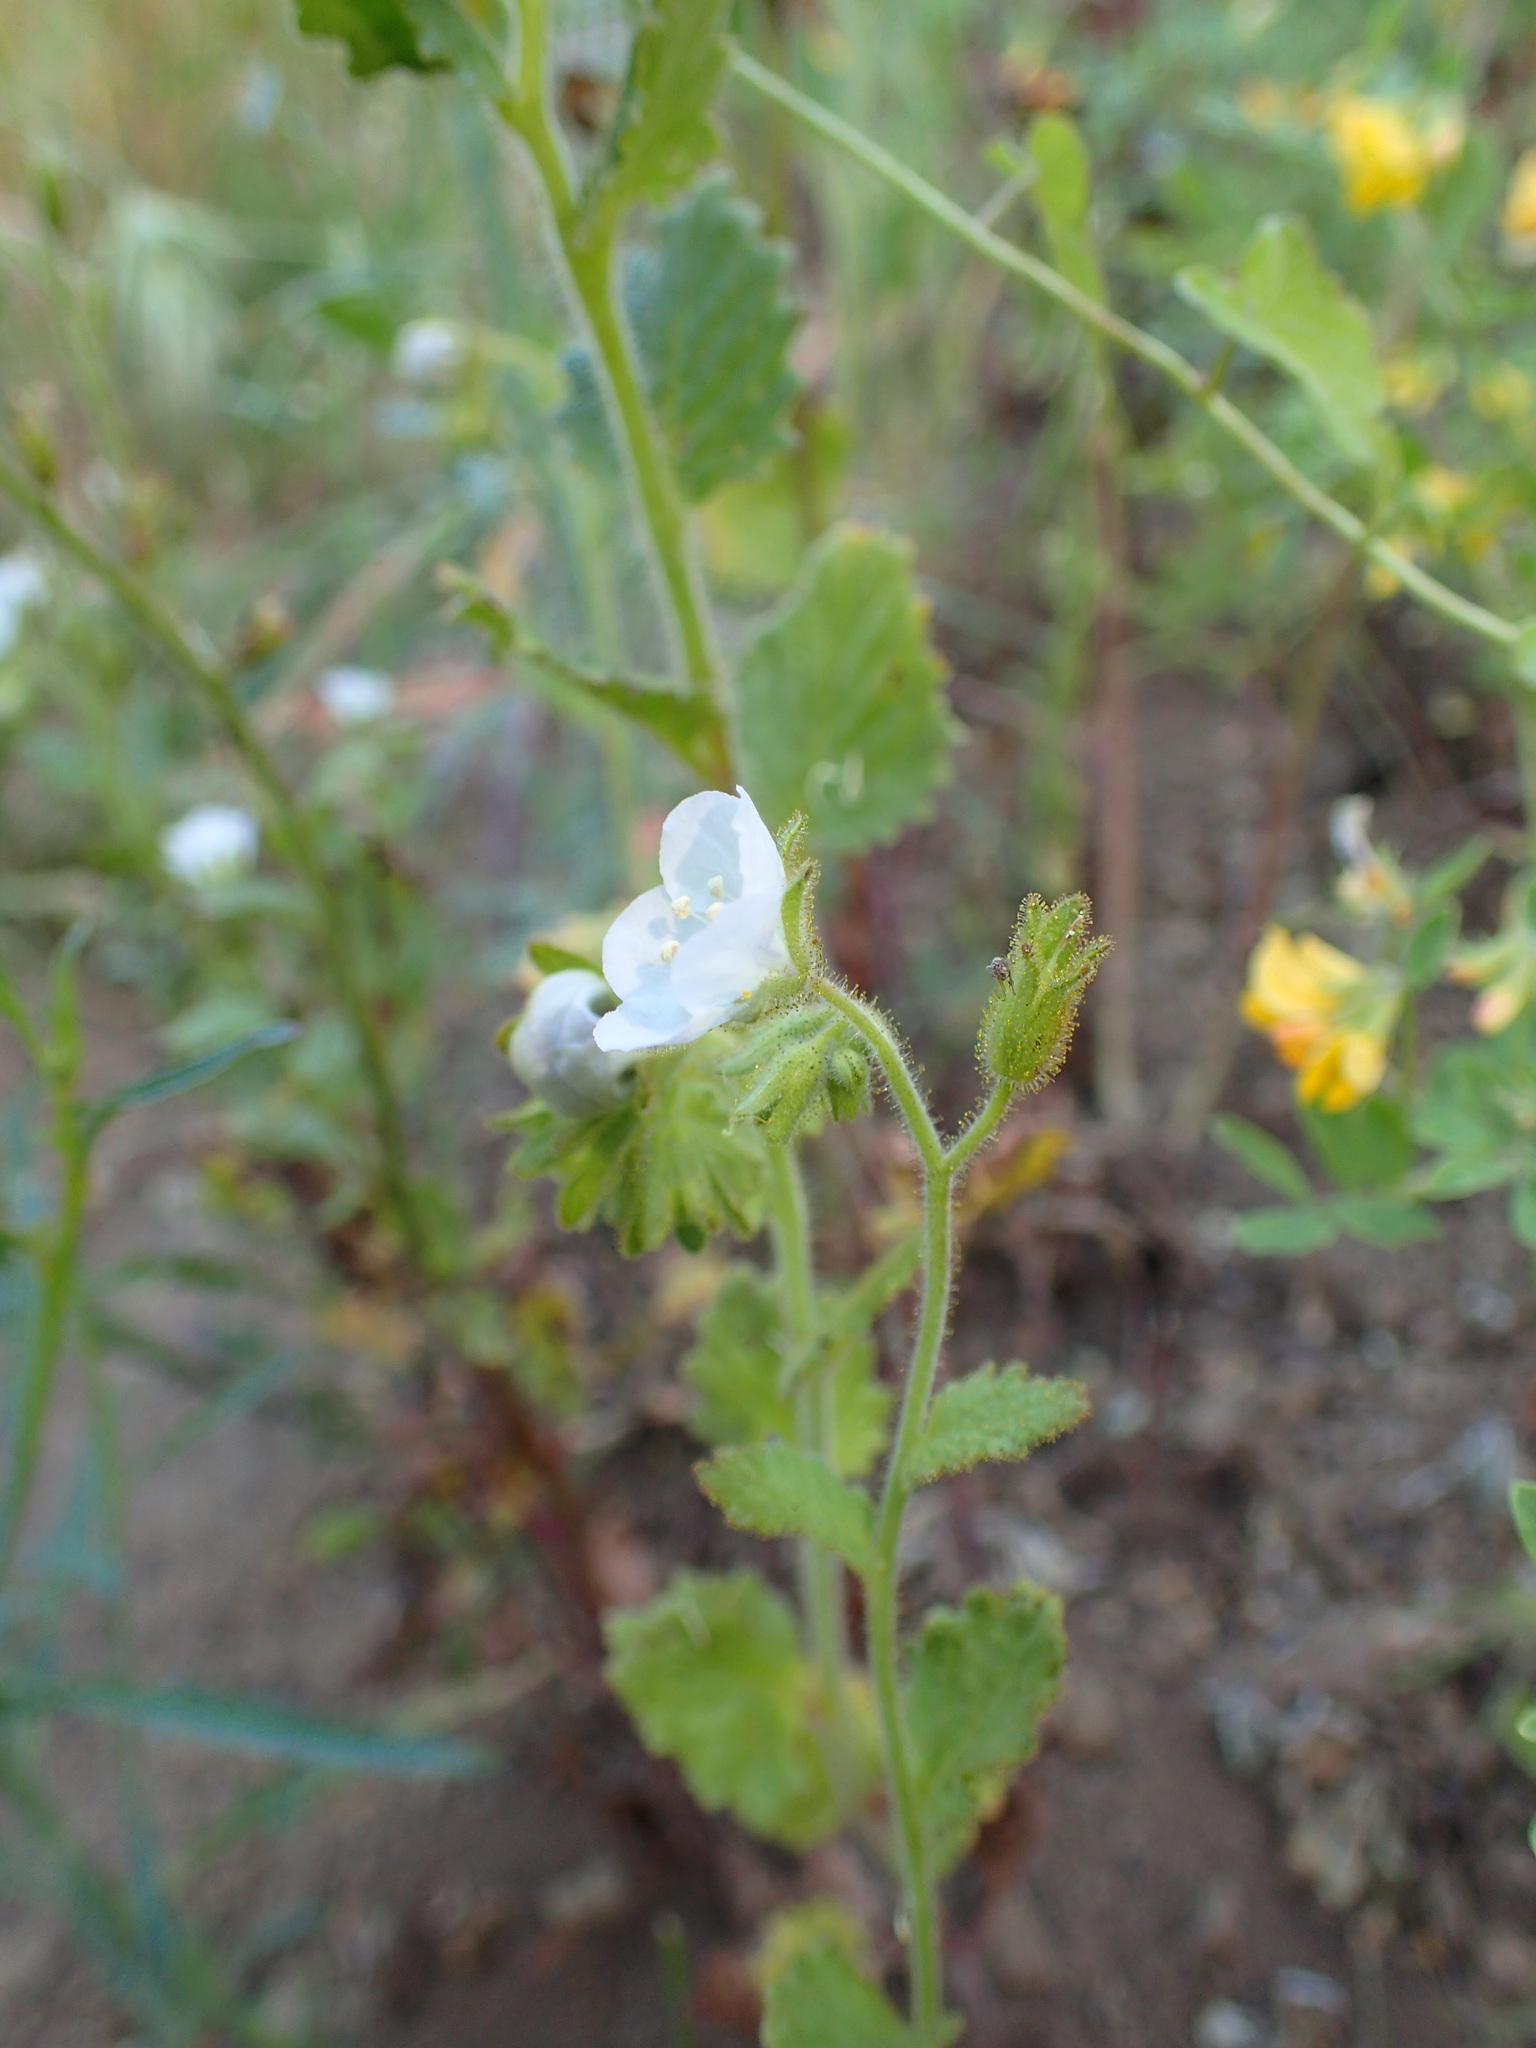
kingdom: Plantae
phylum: Tracheophyta
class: Magnoliopsida
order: Boraginales
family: Hydrophyllaceae
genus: Phacelia
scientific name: Phacelia viscida
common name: Sticky phacelia
